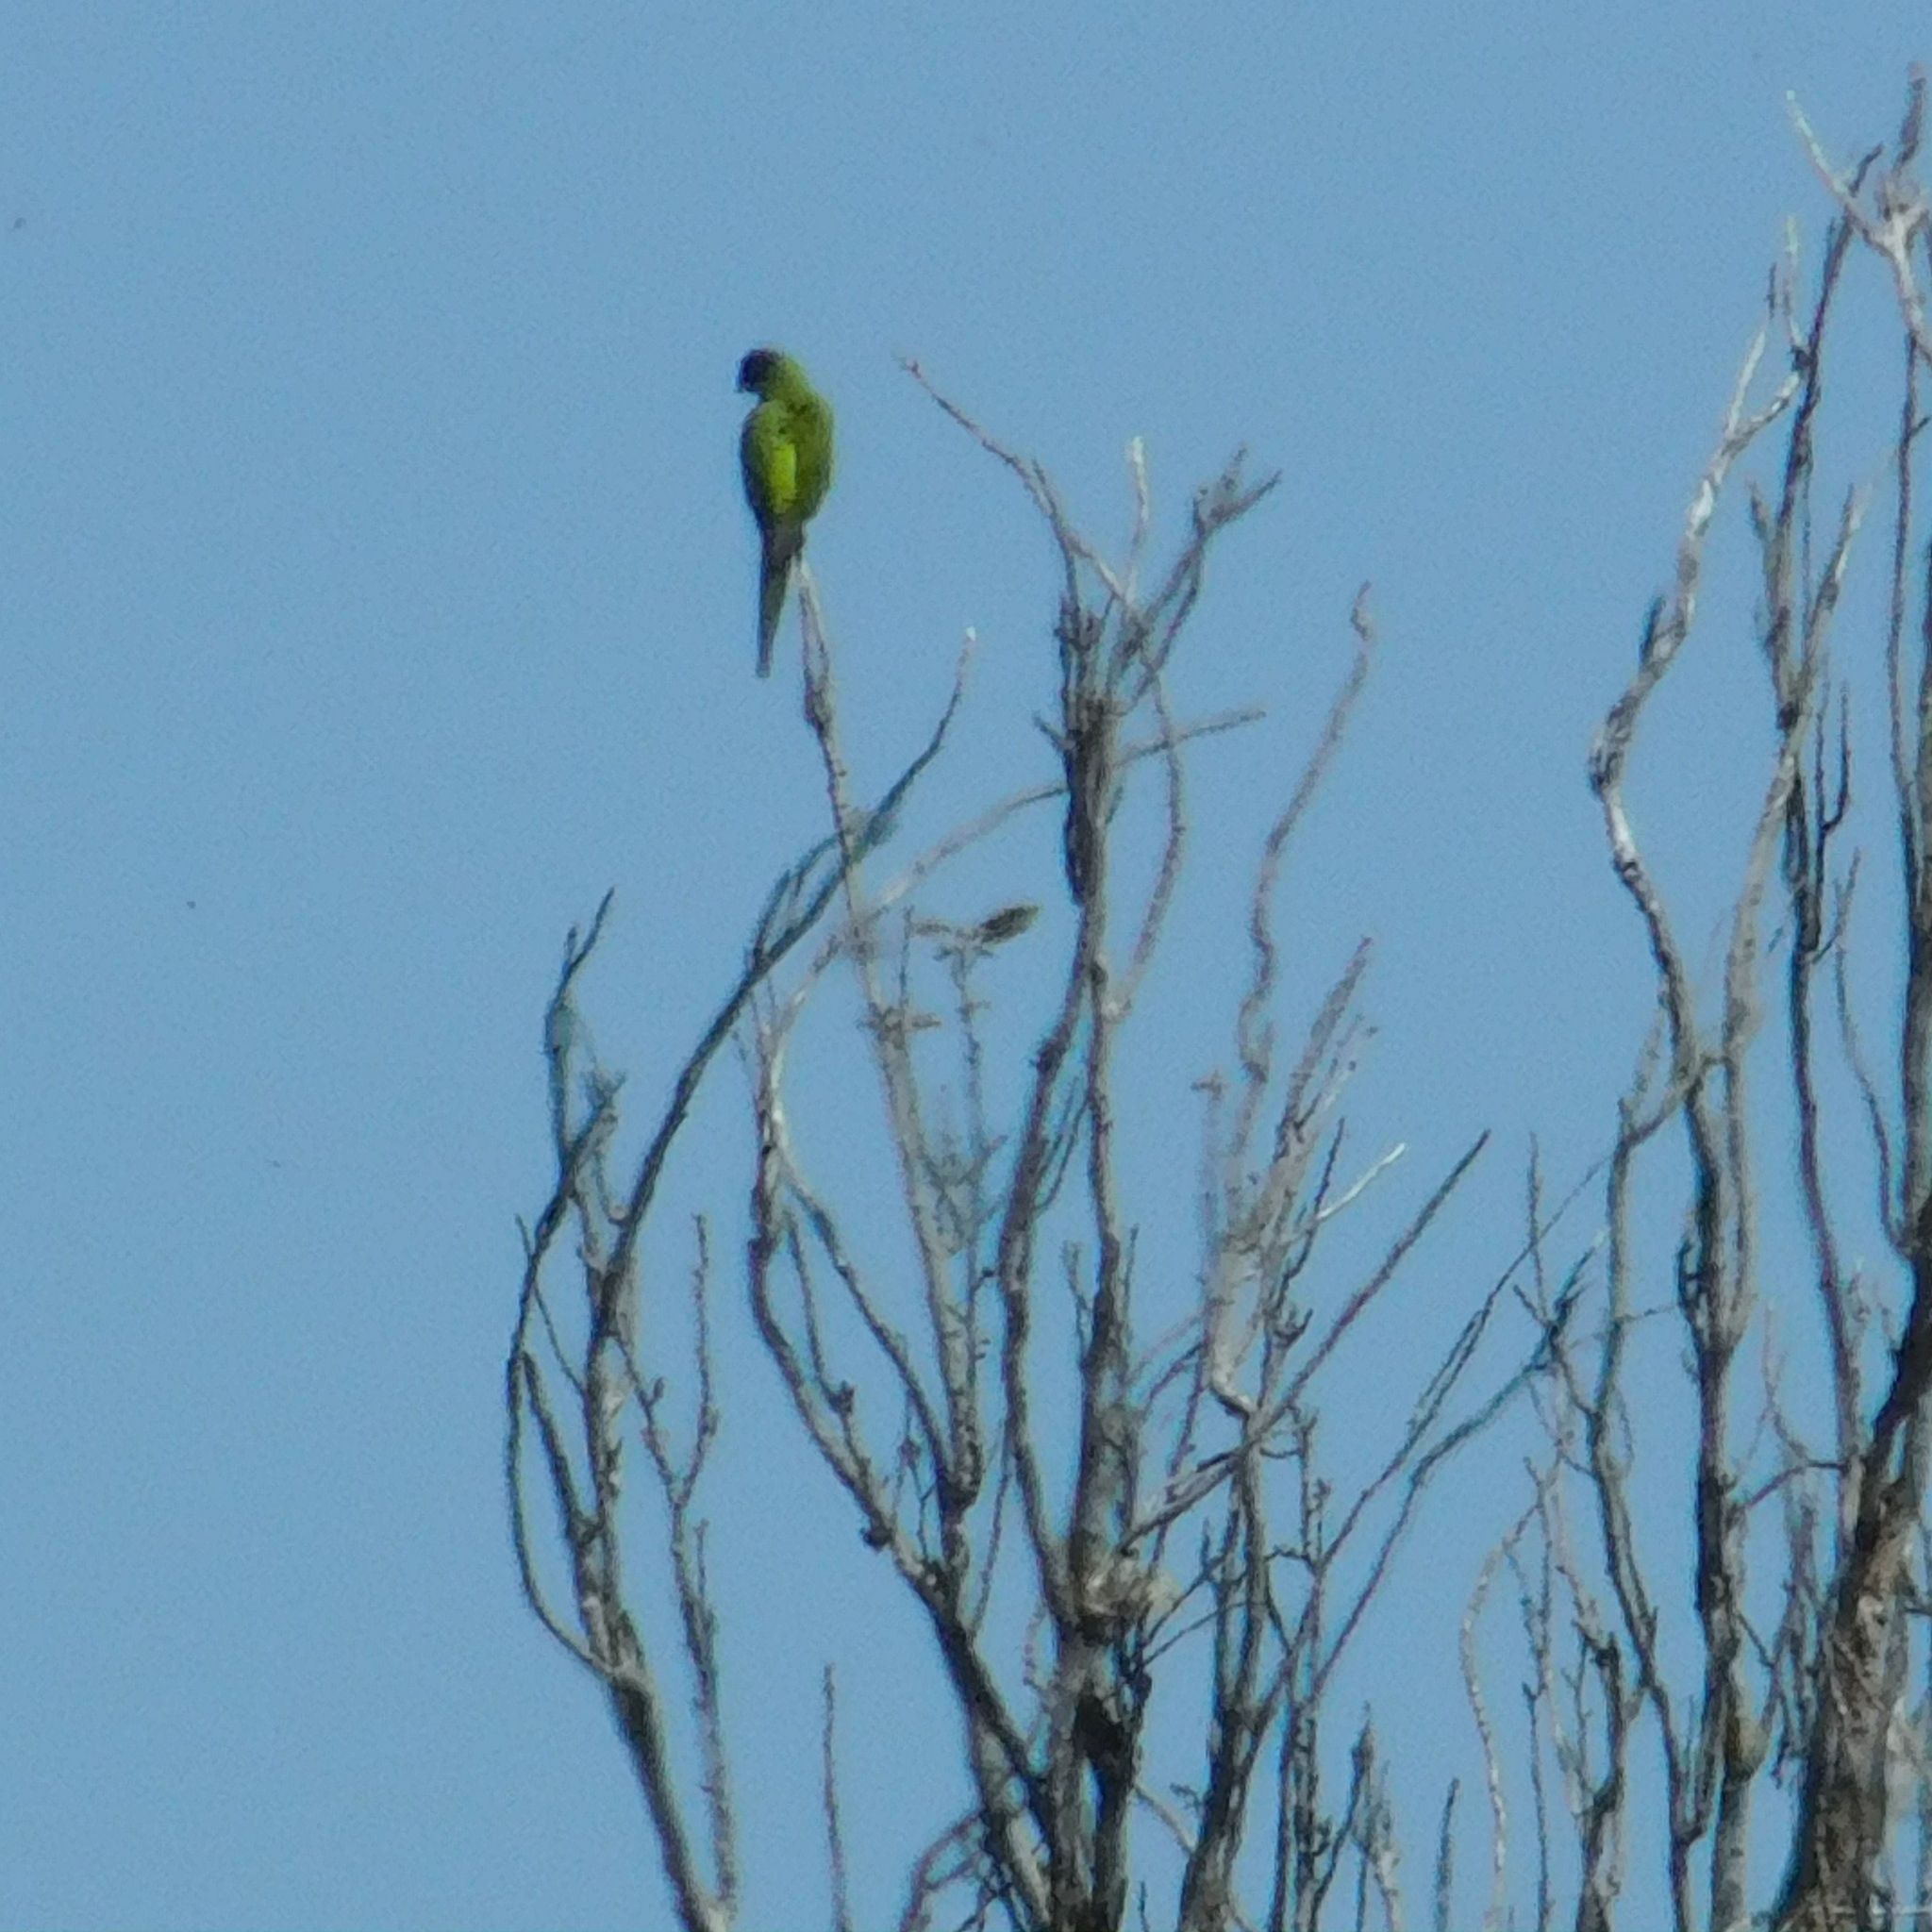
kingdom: Animalia
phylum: Chordata
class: Aves
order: Psittaciformes
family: Psittacidae
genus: Nandayus
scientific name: Nandayus nenday
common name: Nanday parakeet
